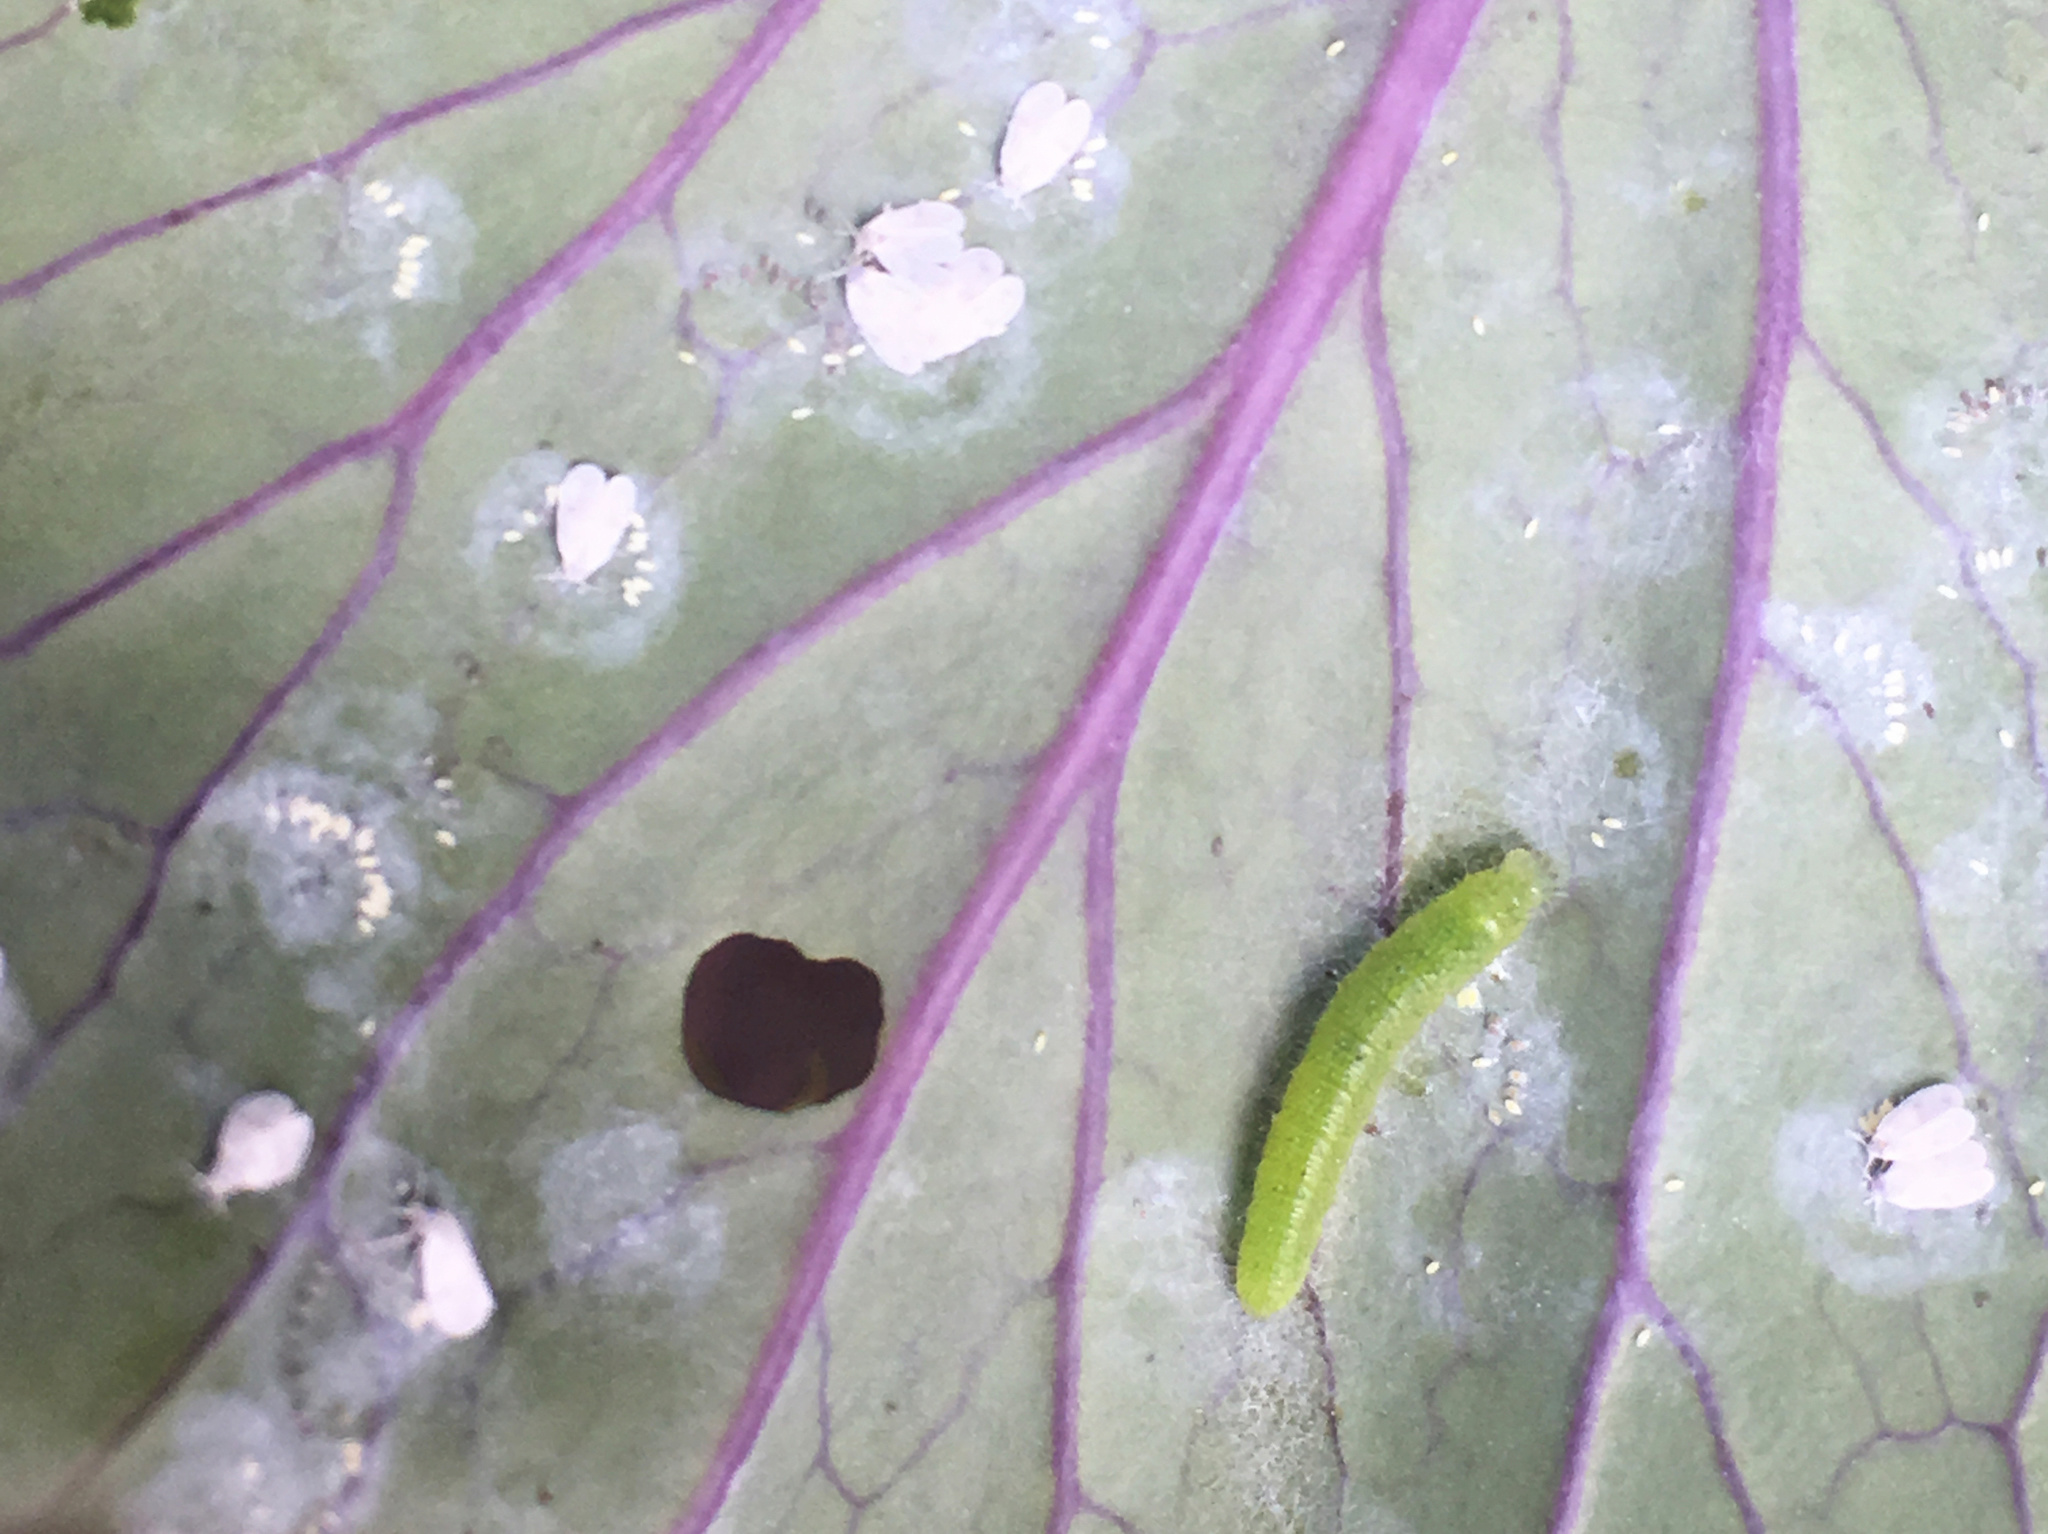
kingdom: Animalia
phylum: Arthropoda
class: Insecta
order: Hemiptera
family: Aleyrodidae
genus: Aleyrodes
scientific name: Aleyrodes proletella
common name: Cabbage whitefly
